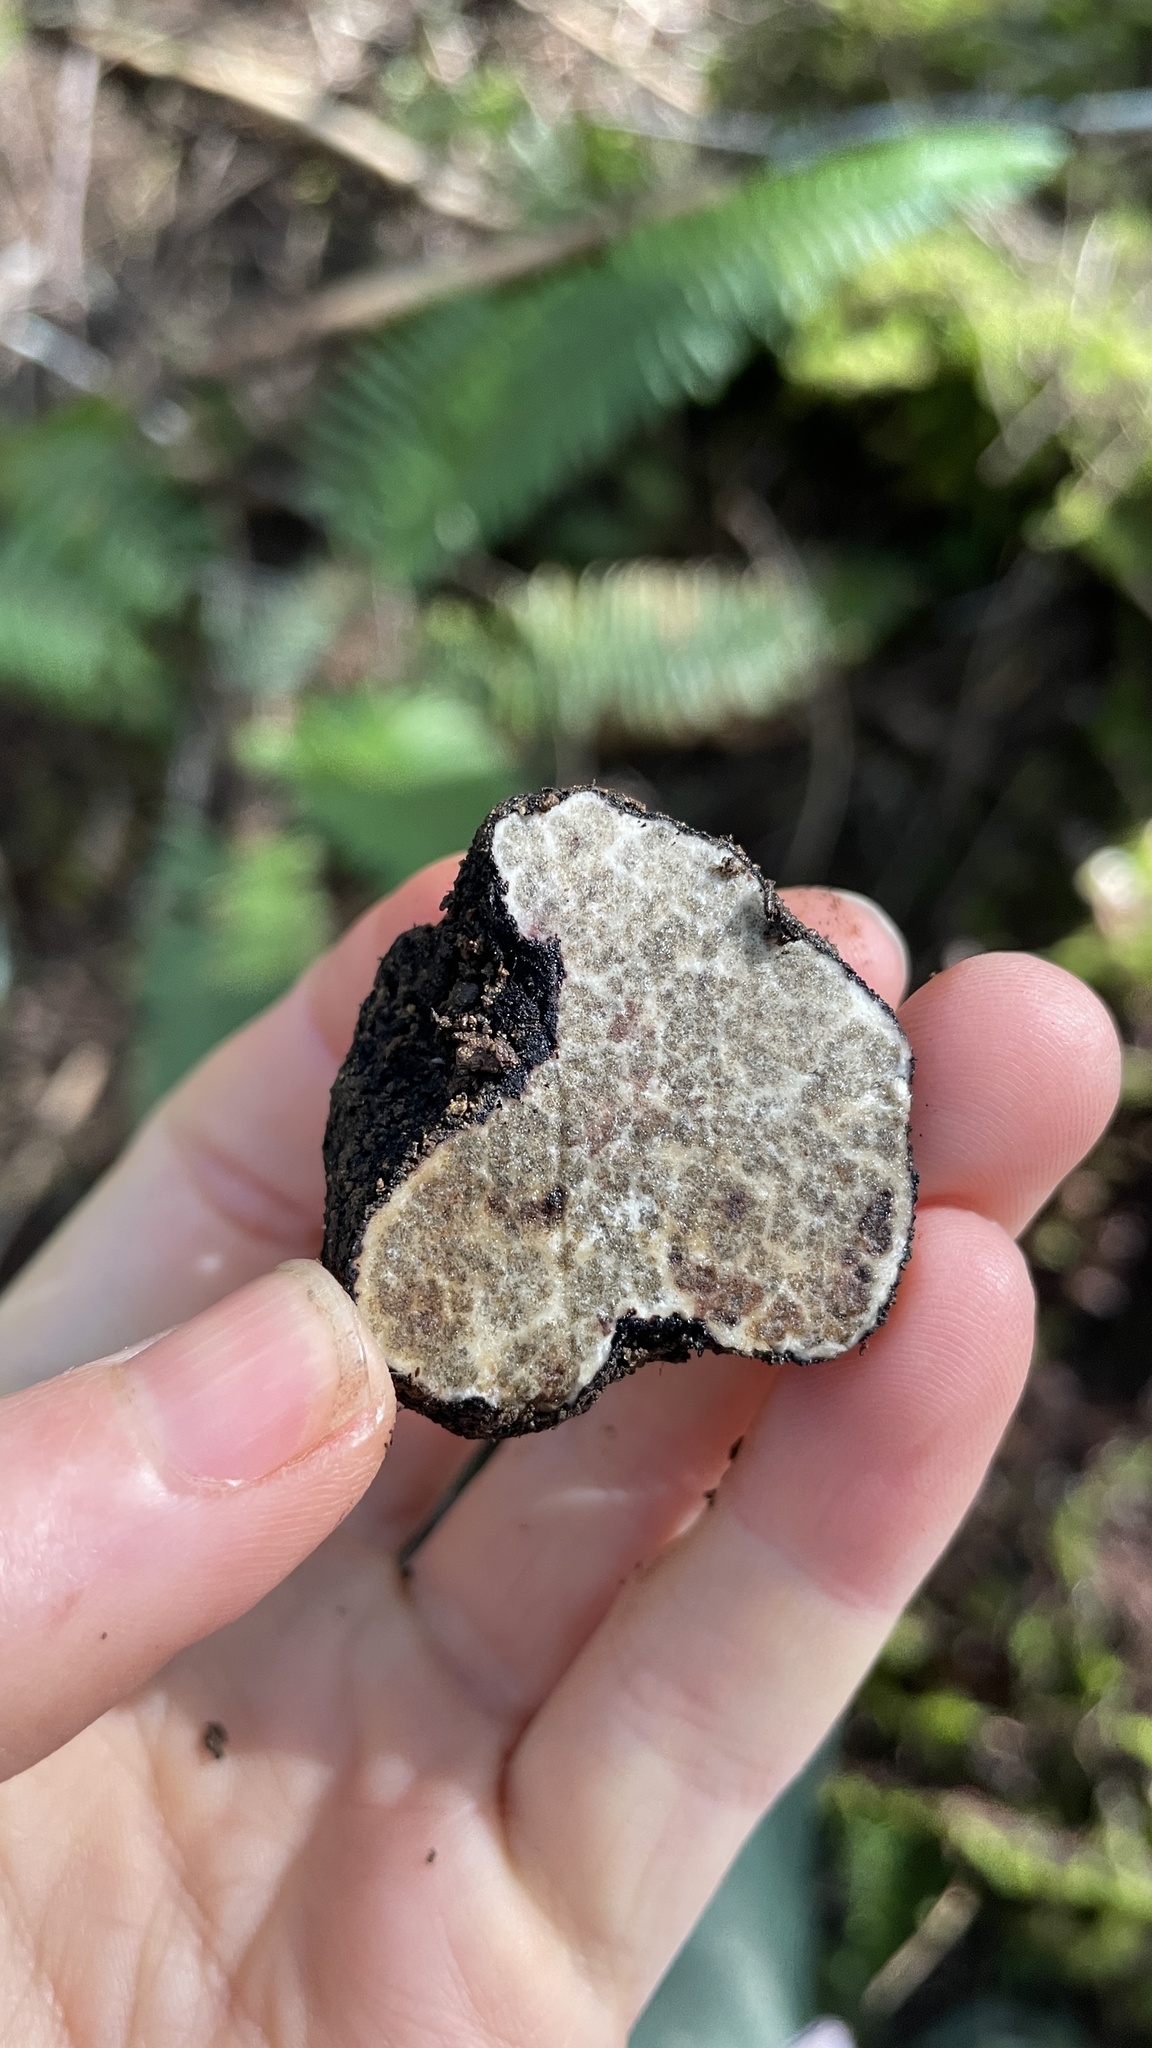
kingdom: Fungi
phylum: Ascomycota
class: Pezizomycetes
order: Pezizales
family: Morchellaceae
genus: Leucangium
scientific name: Leucangium carthusianum
